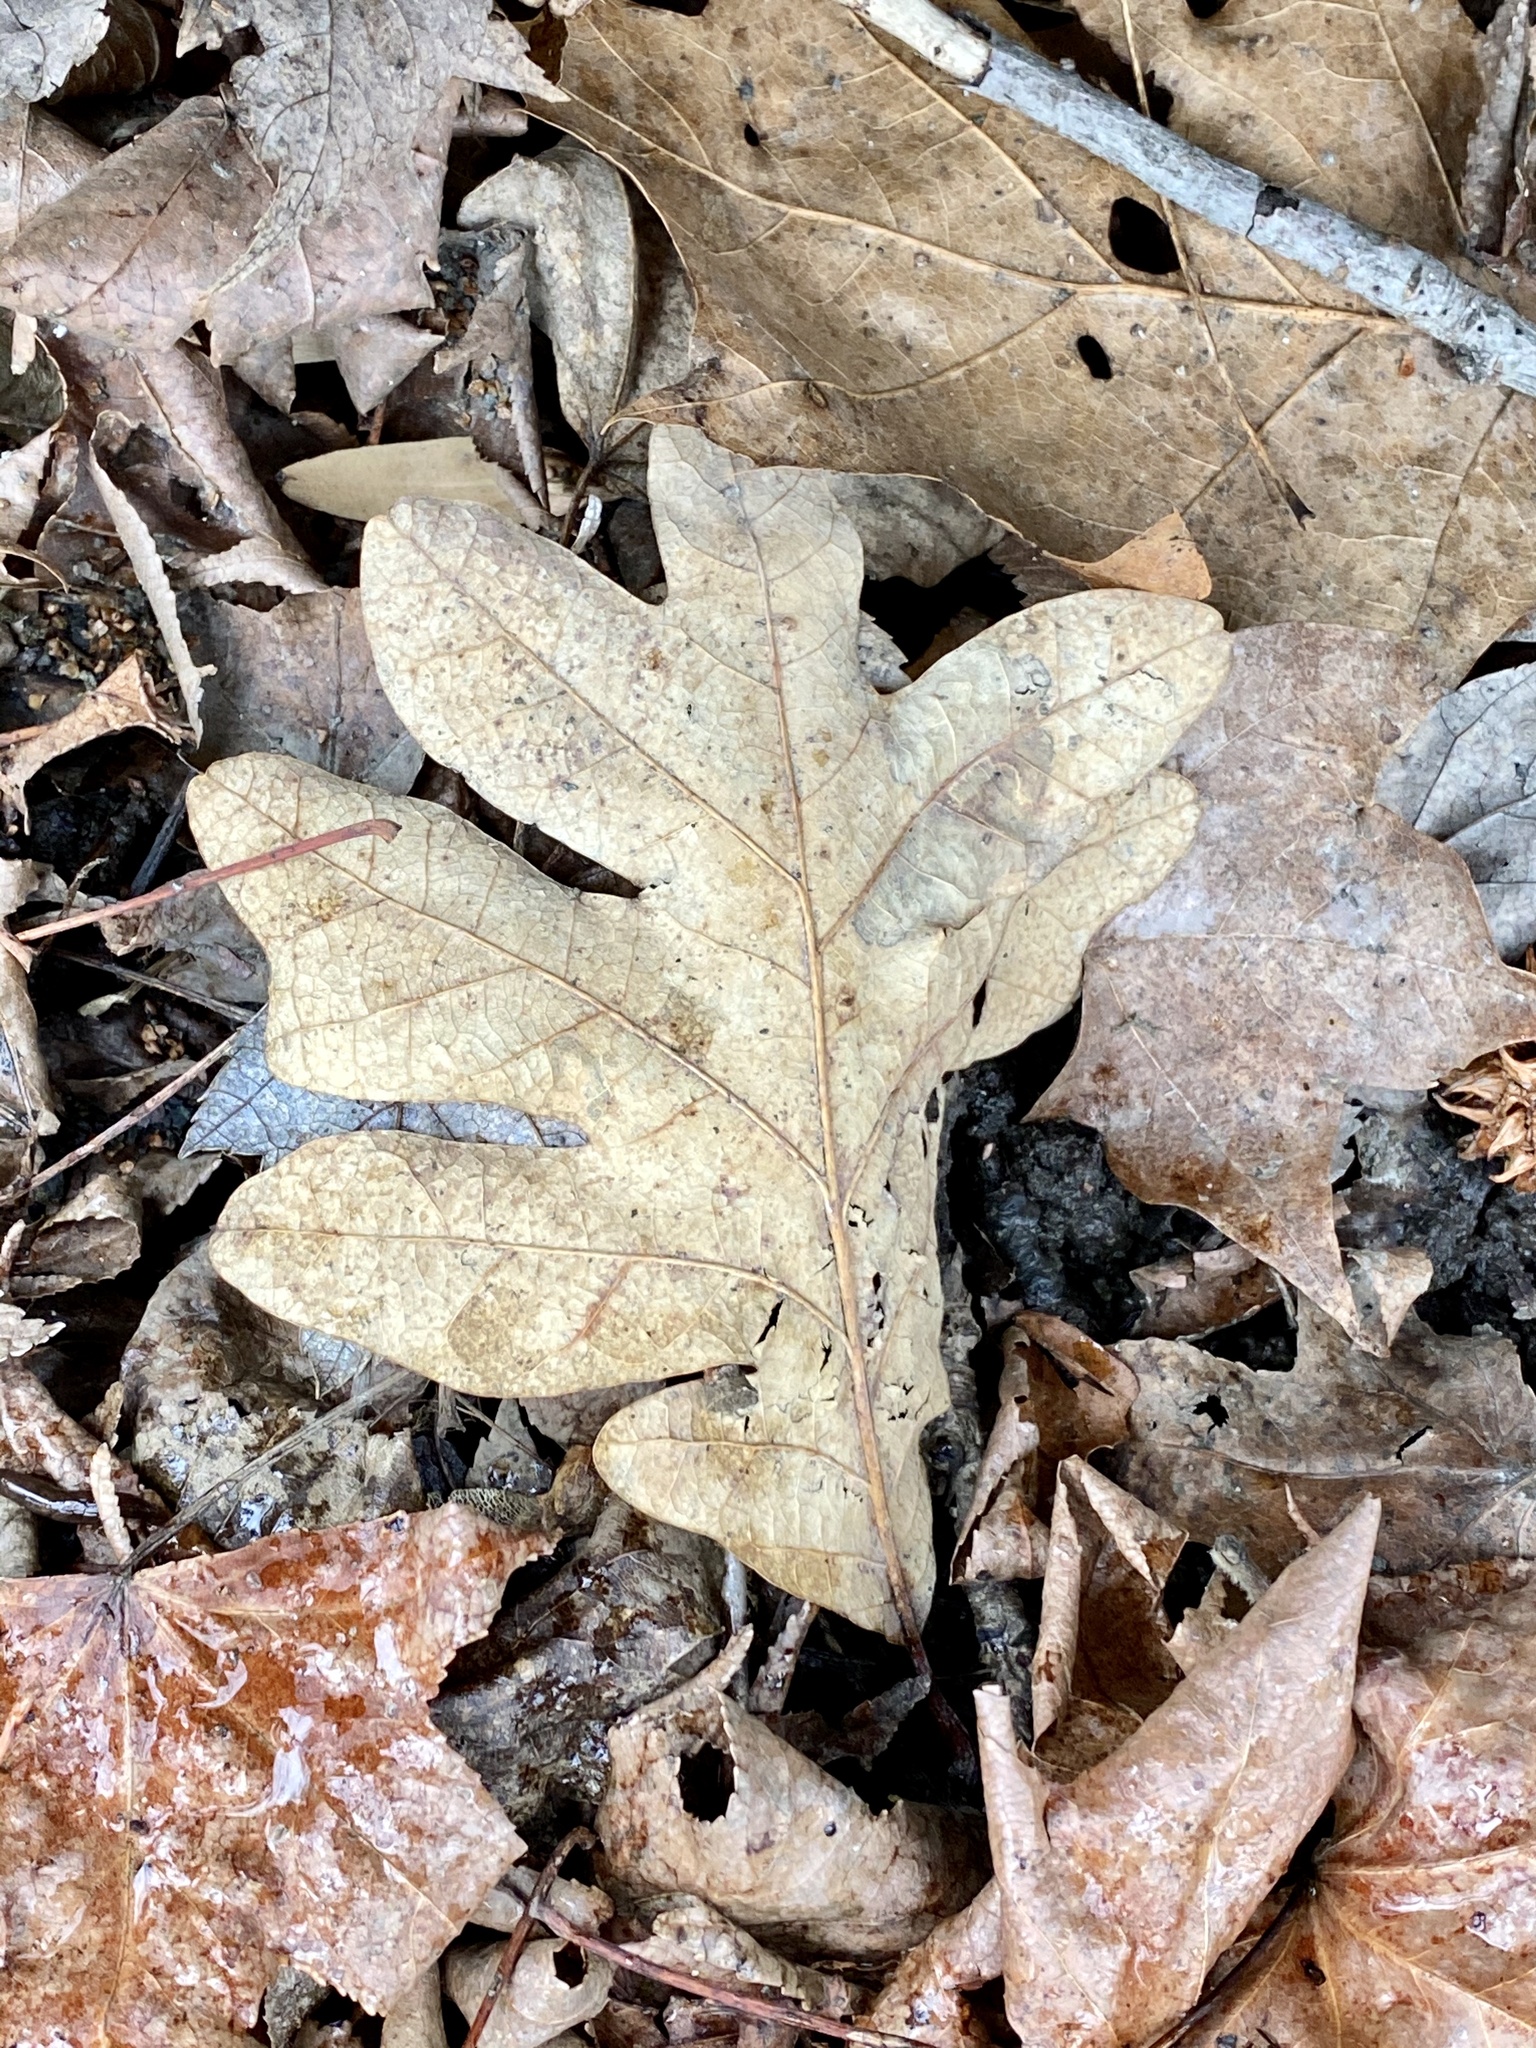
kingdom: Plantae
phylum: Tracheophyta
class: Magnoliopsida
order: Fagales
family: Fagaceae
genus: Quercus
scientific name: Quercus alba
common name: White oak
